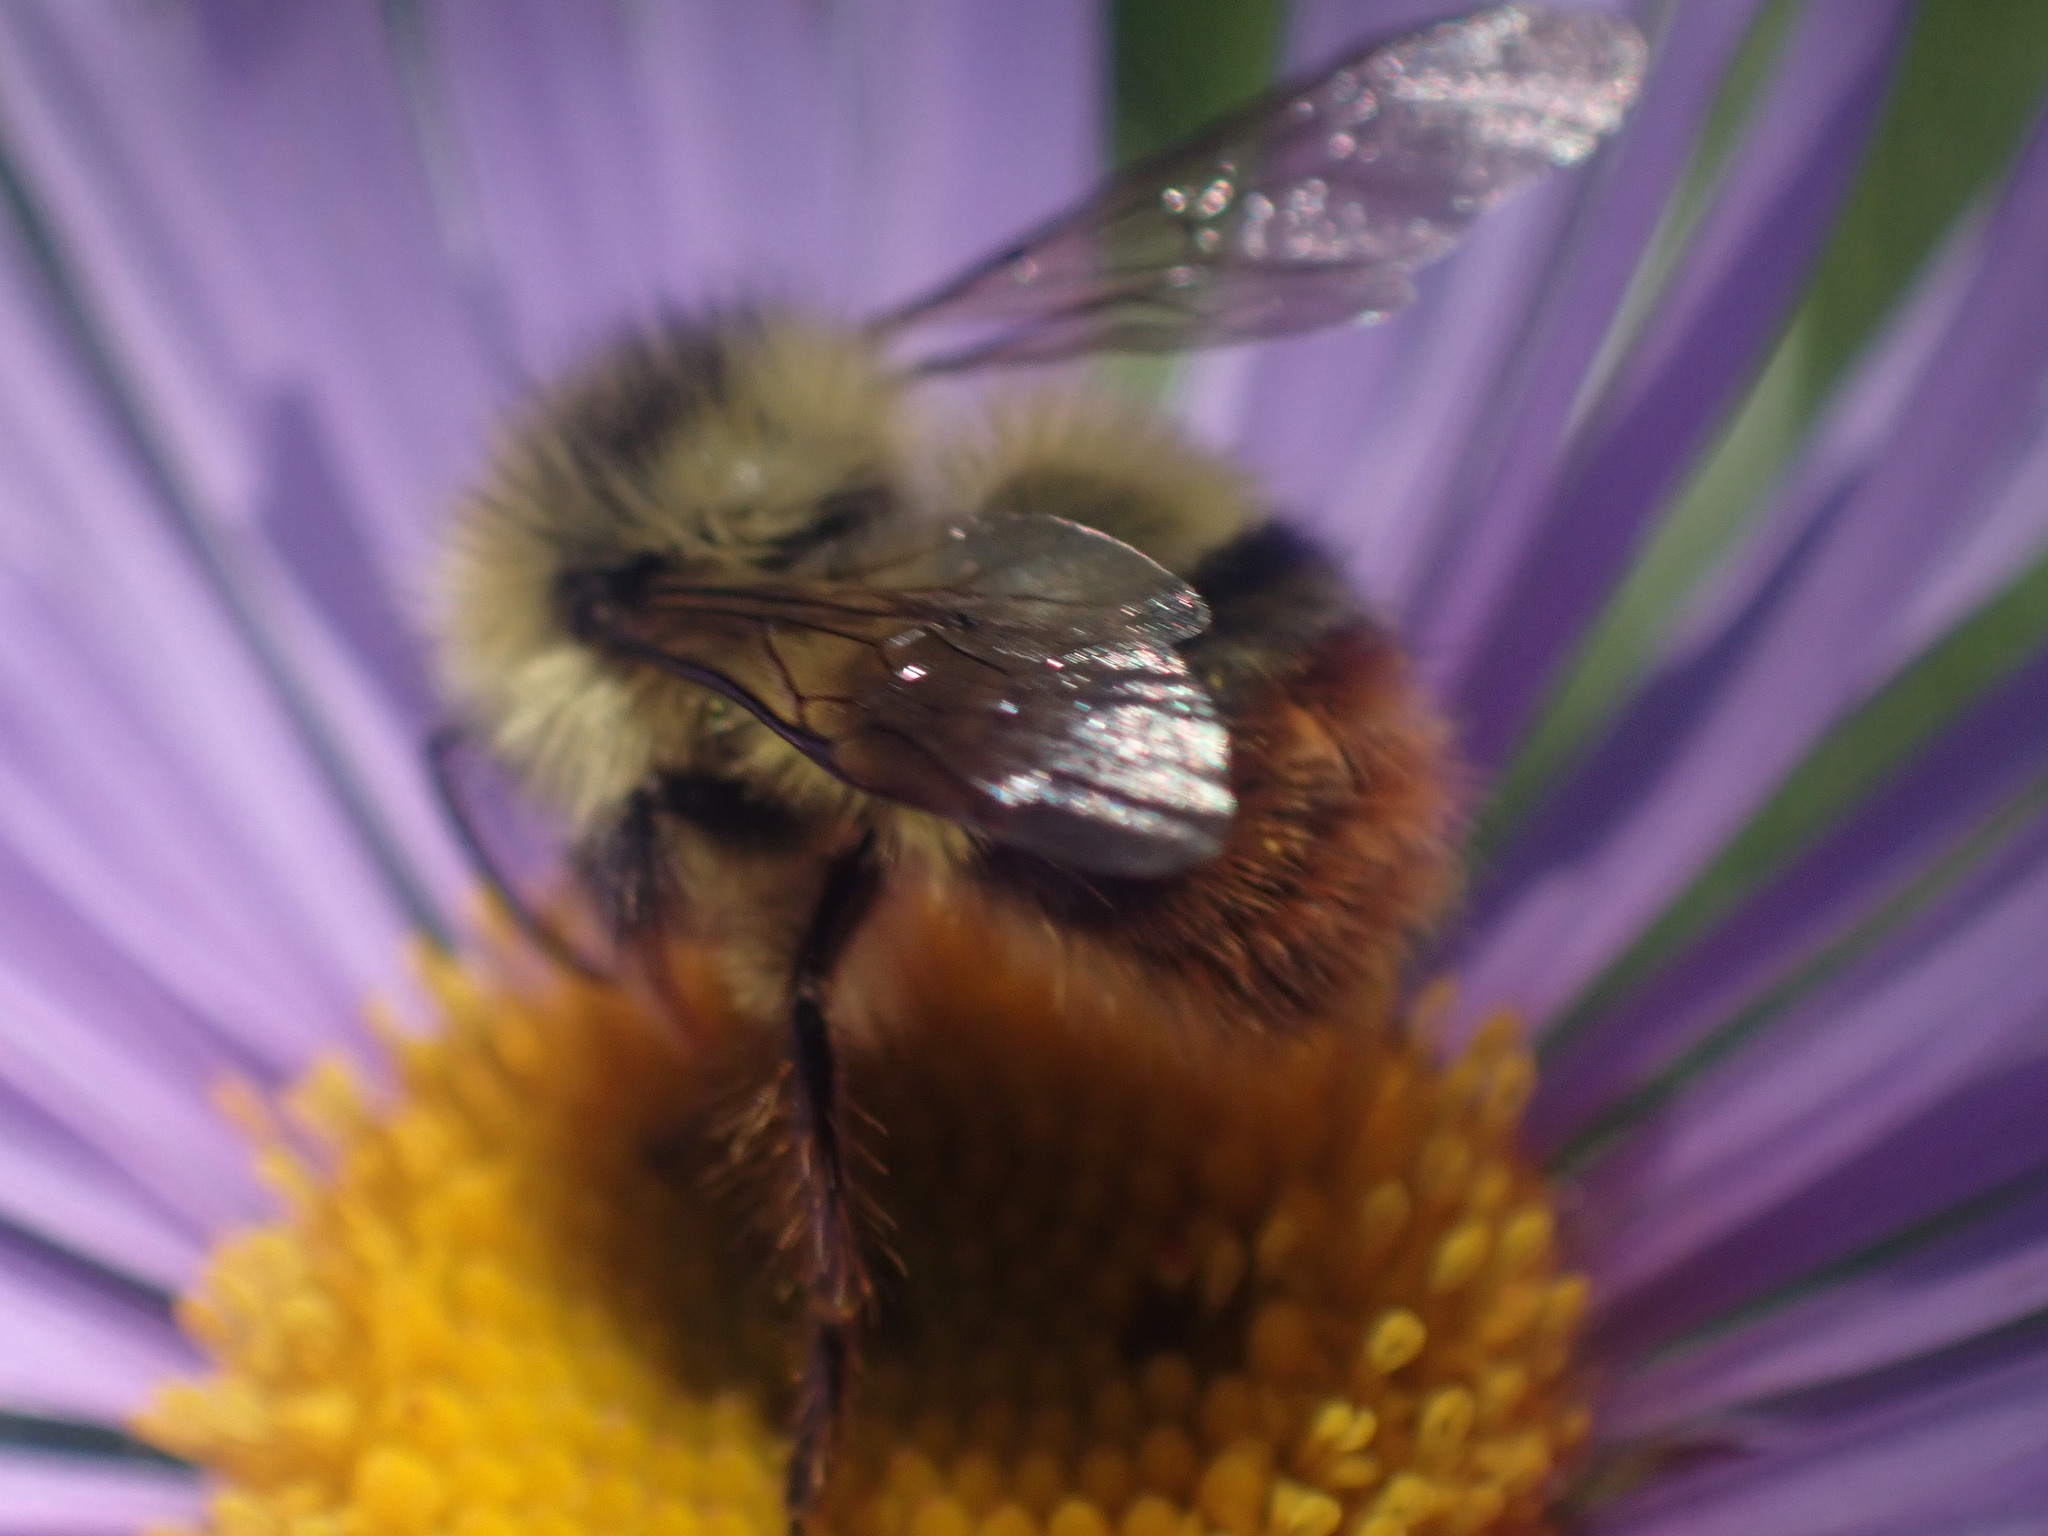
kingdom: Animalia
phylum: Arthropoda
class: Insecta
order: Hymenoptera
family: Apidae
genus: Bombus
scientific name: Bombus mixtus
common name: Fuzzy-horned bumble bee
